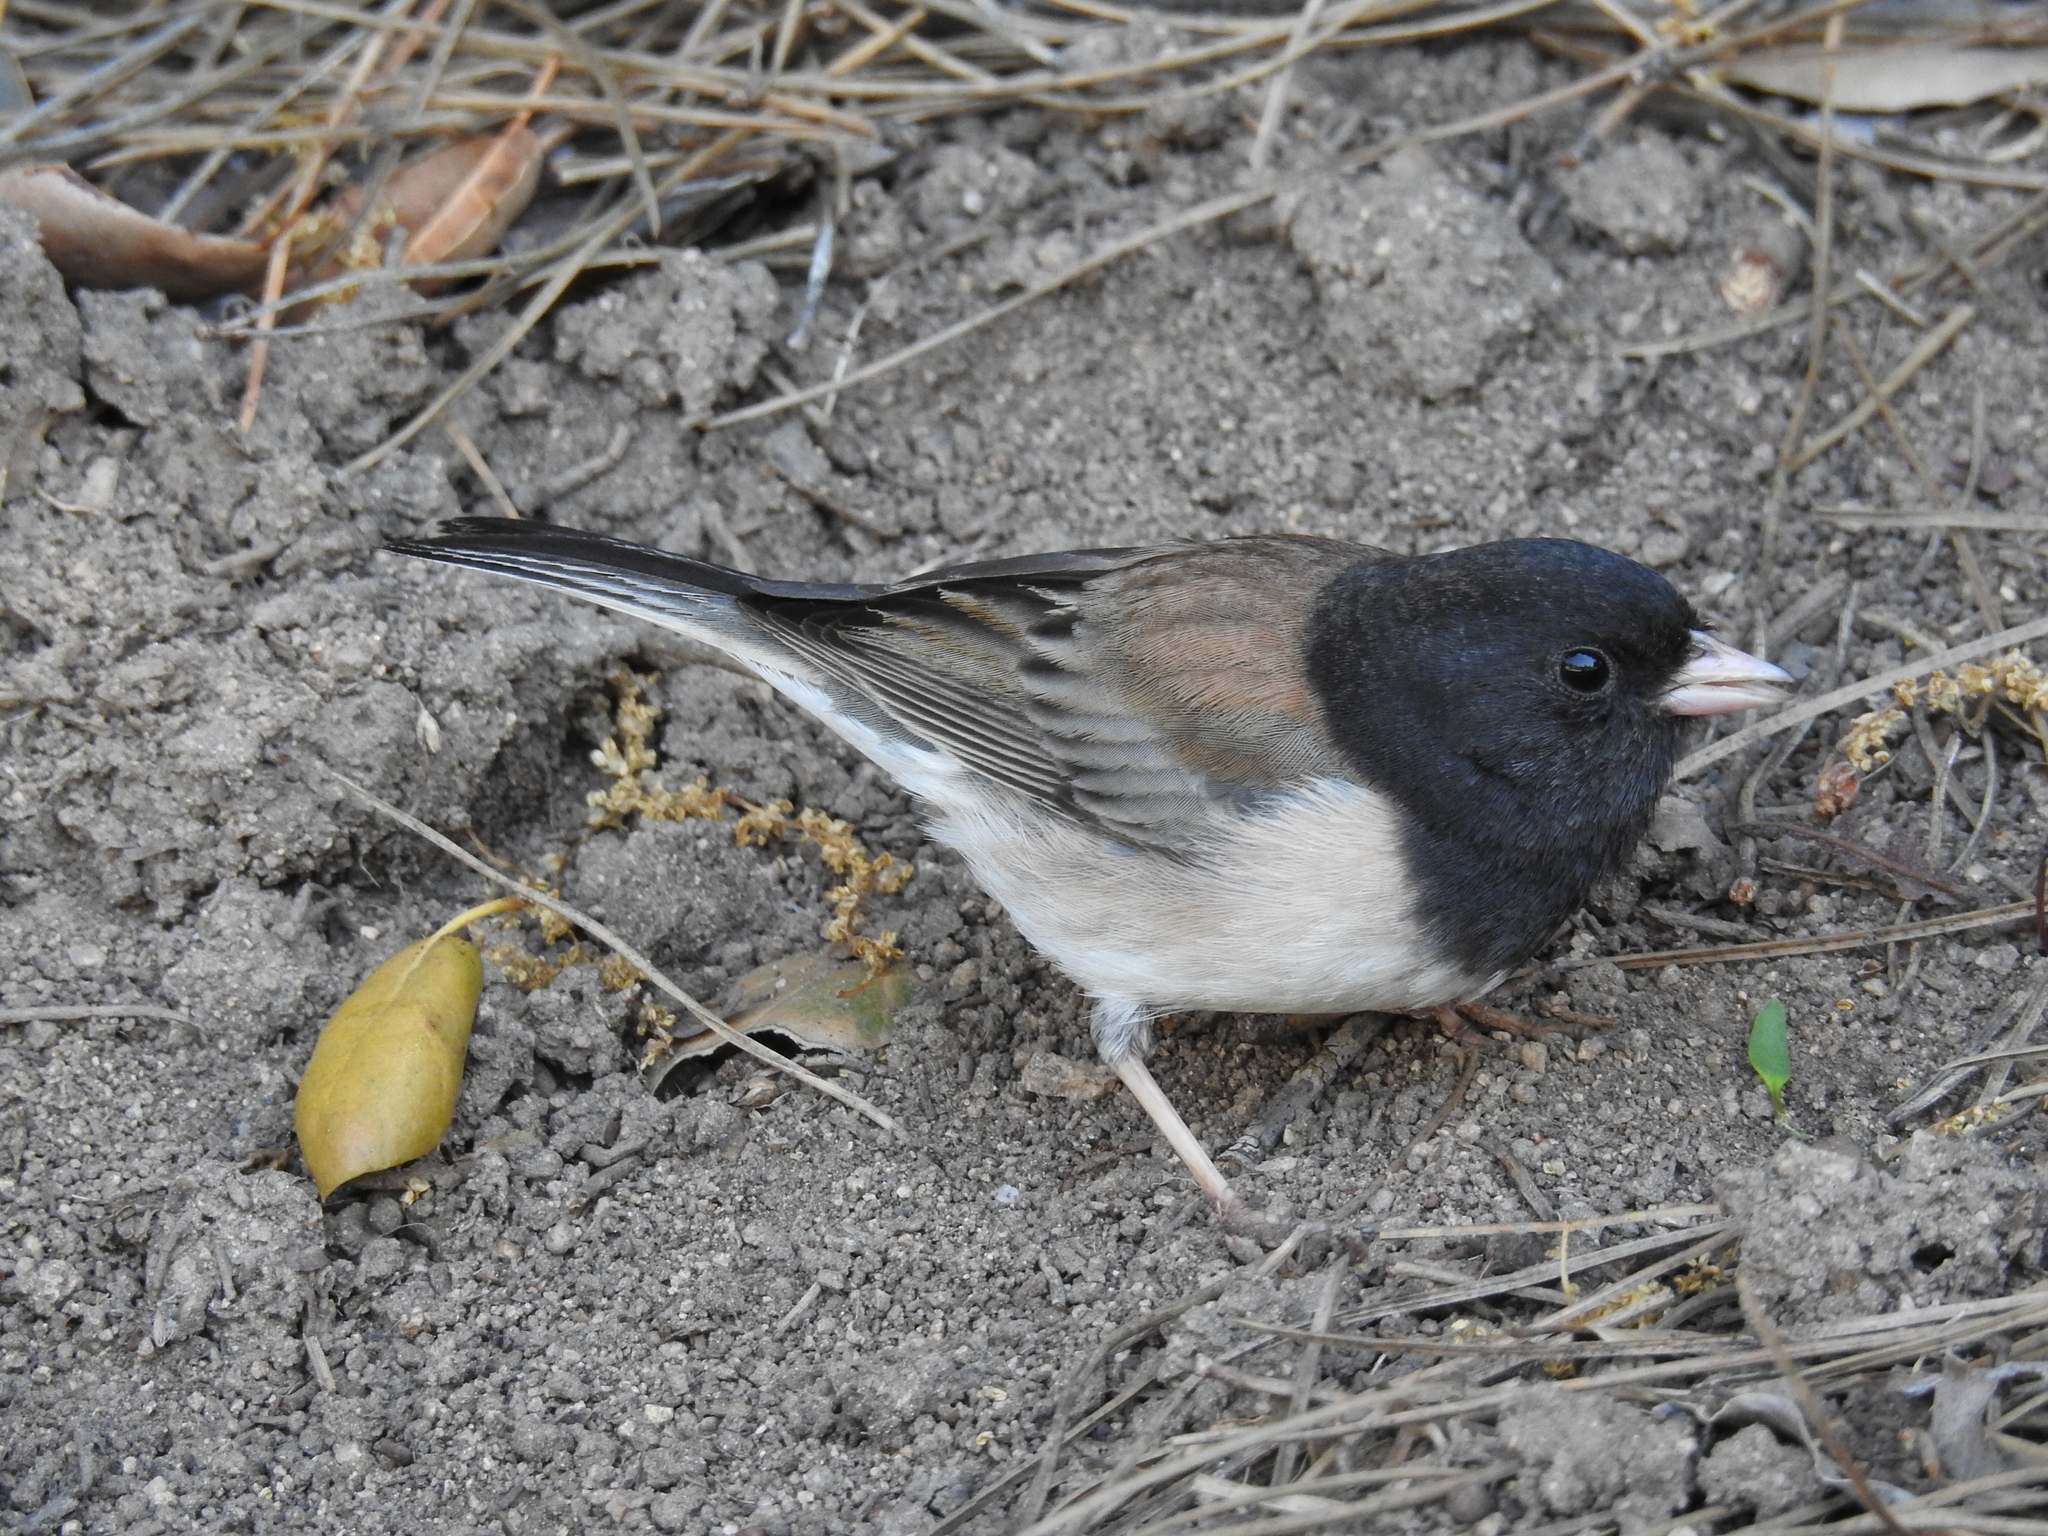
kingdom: Animalia
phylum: Chordata
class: Aves
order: Passeriformes
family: Passerellidae
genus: Junco
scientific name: Junco hyemalis
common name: Dark-eyed junco
